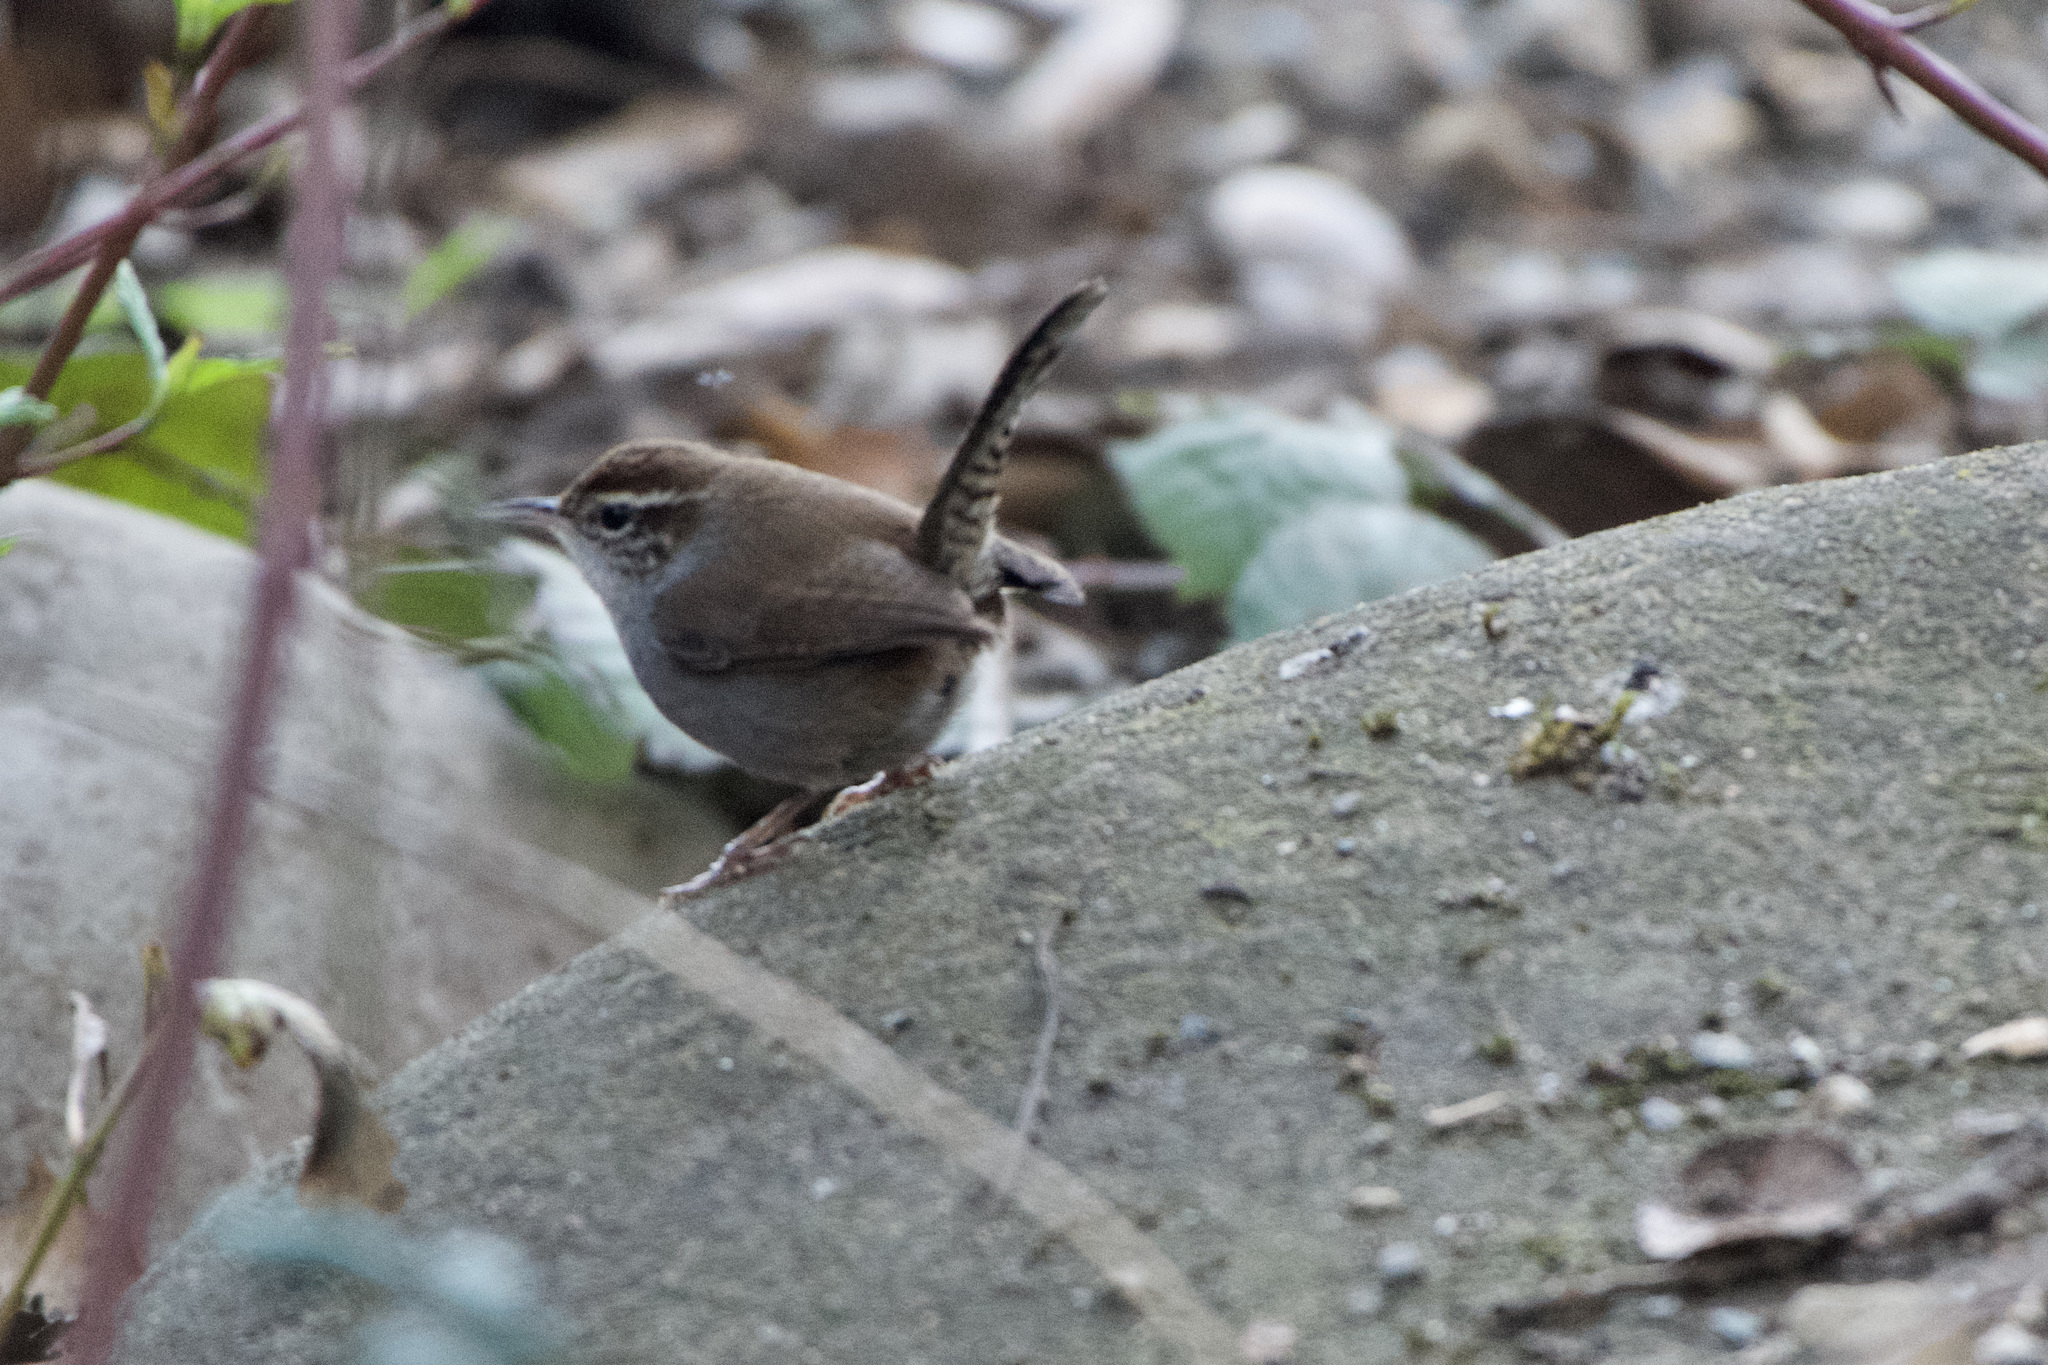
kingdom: Animalia
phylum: Chordata
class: Aves
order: Passeriformes
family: Troglodytidae
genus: Thryomanes
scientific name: Thryomanes bewickii
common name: Bewick's wren
